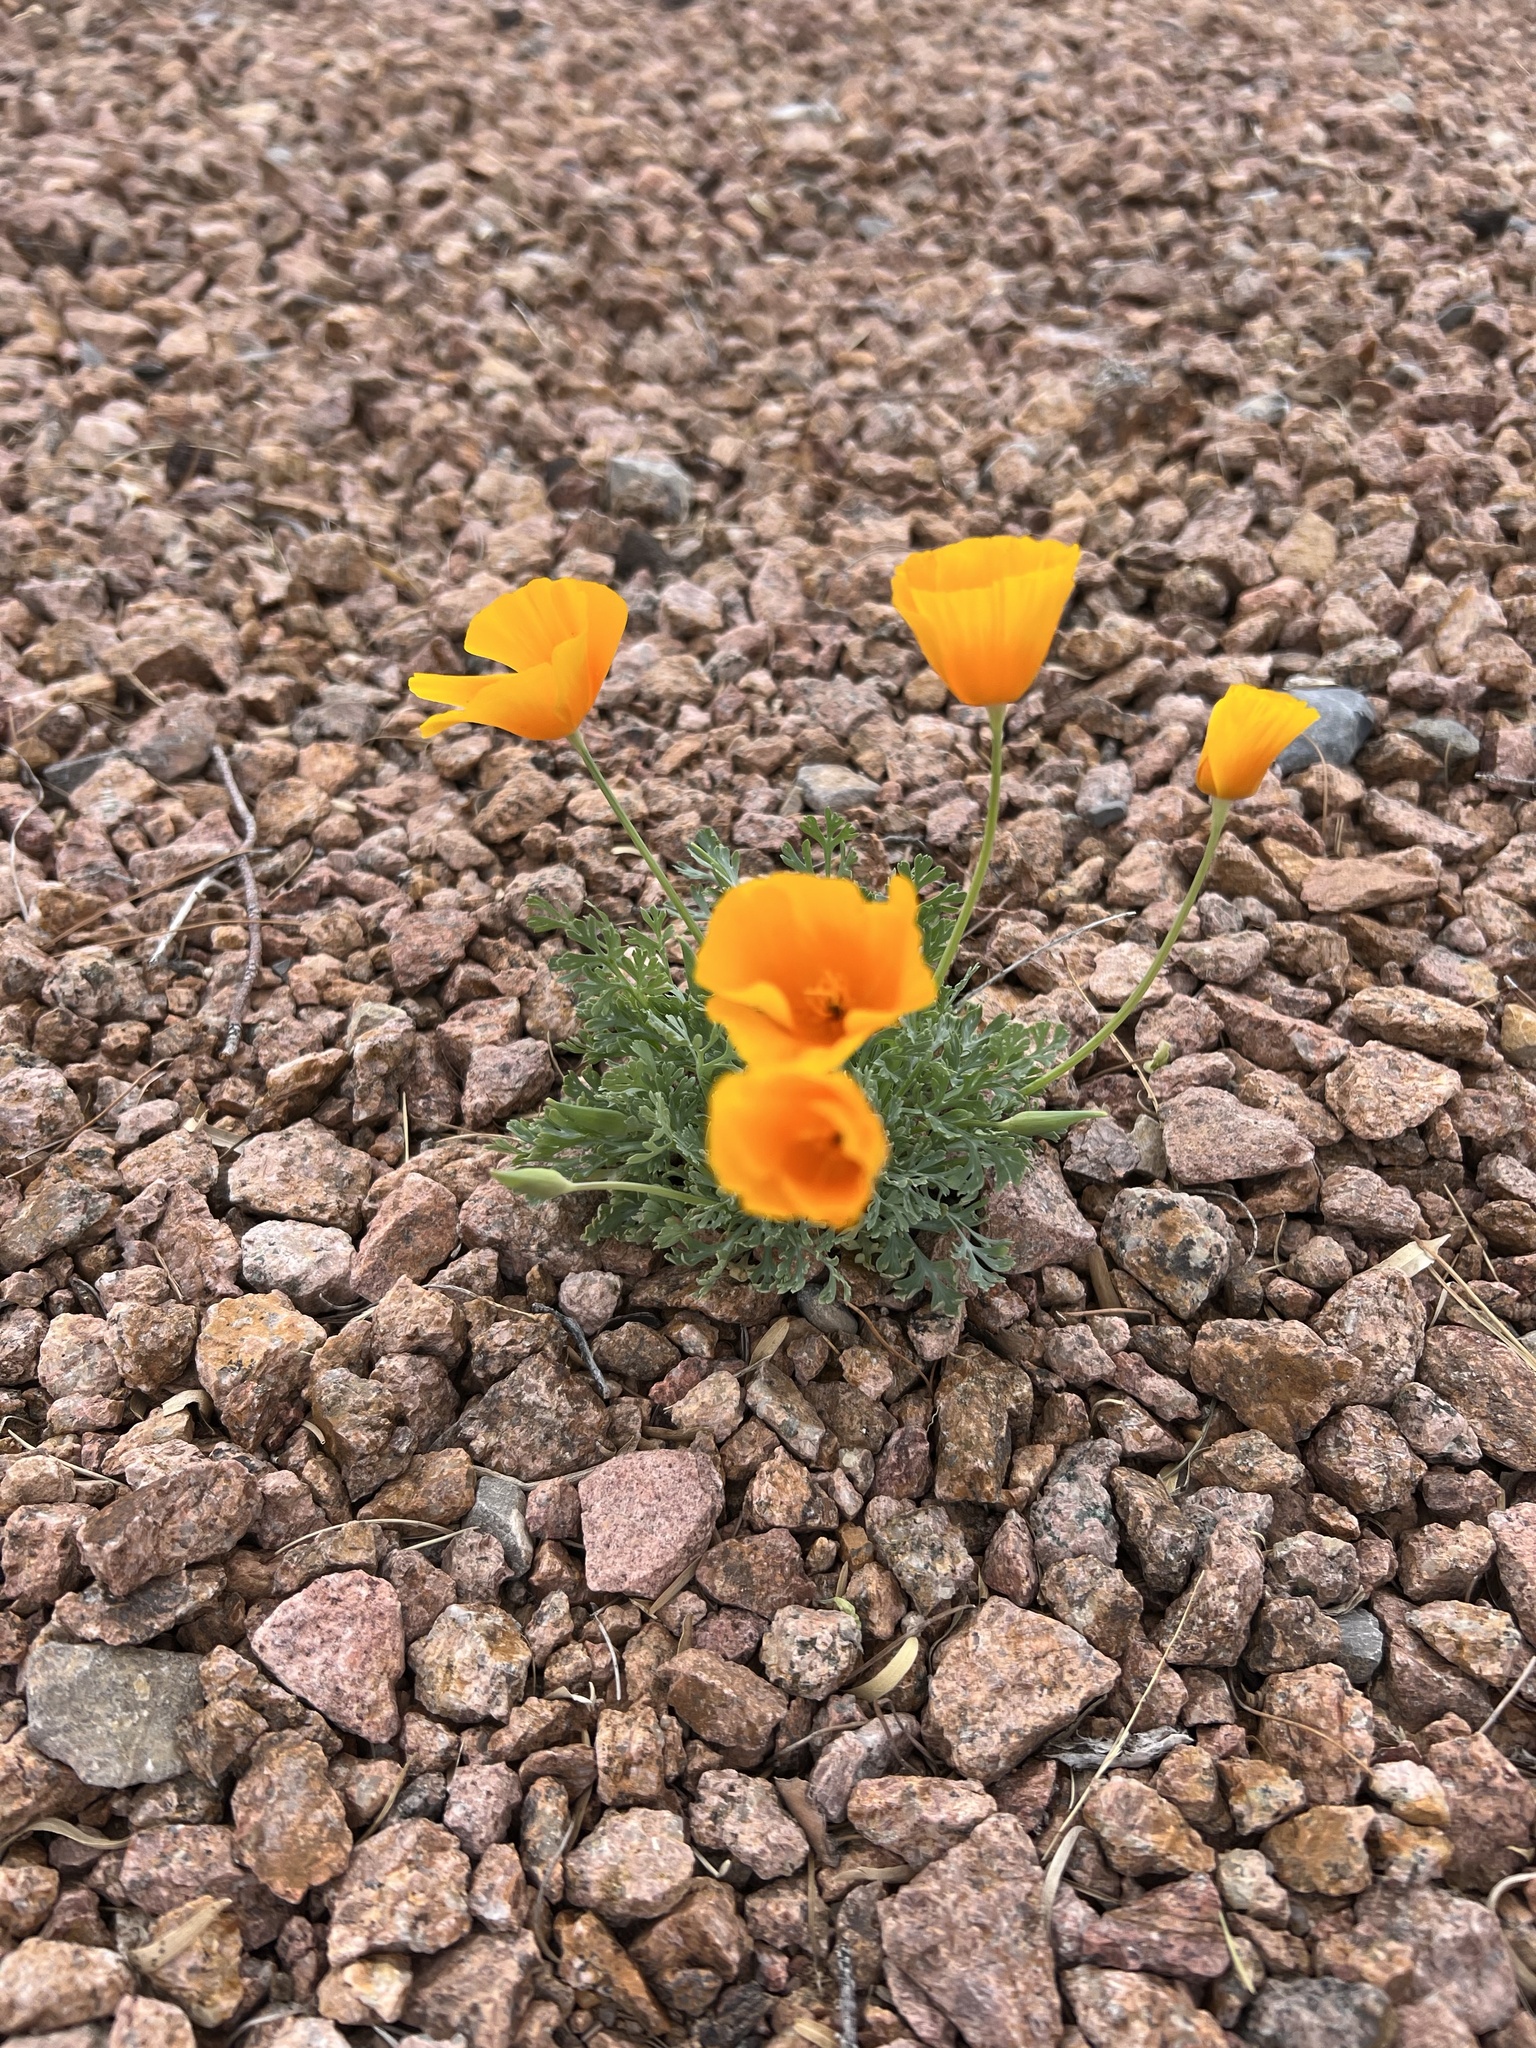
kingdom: Plantae
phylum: Tracheophyta
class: Magnoliopsida
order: Ranunculales
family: Papaveraceae
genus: Eschscholzia
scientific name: Eschscholzia californica
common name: California poppy
